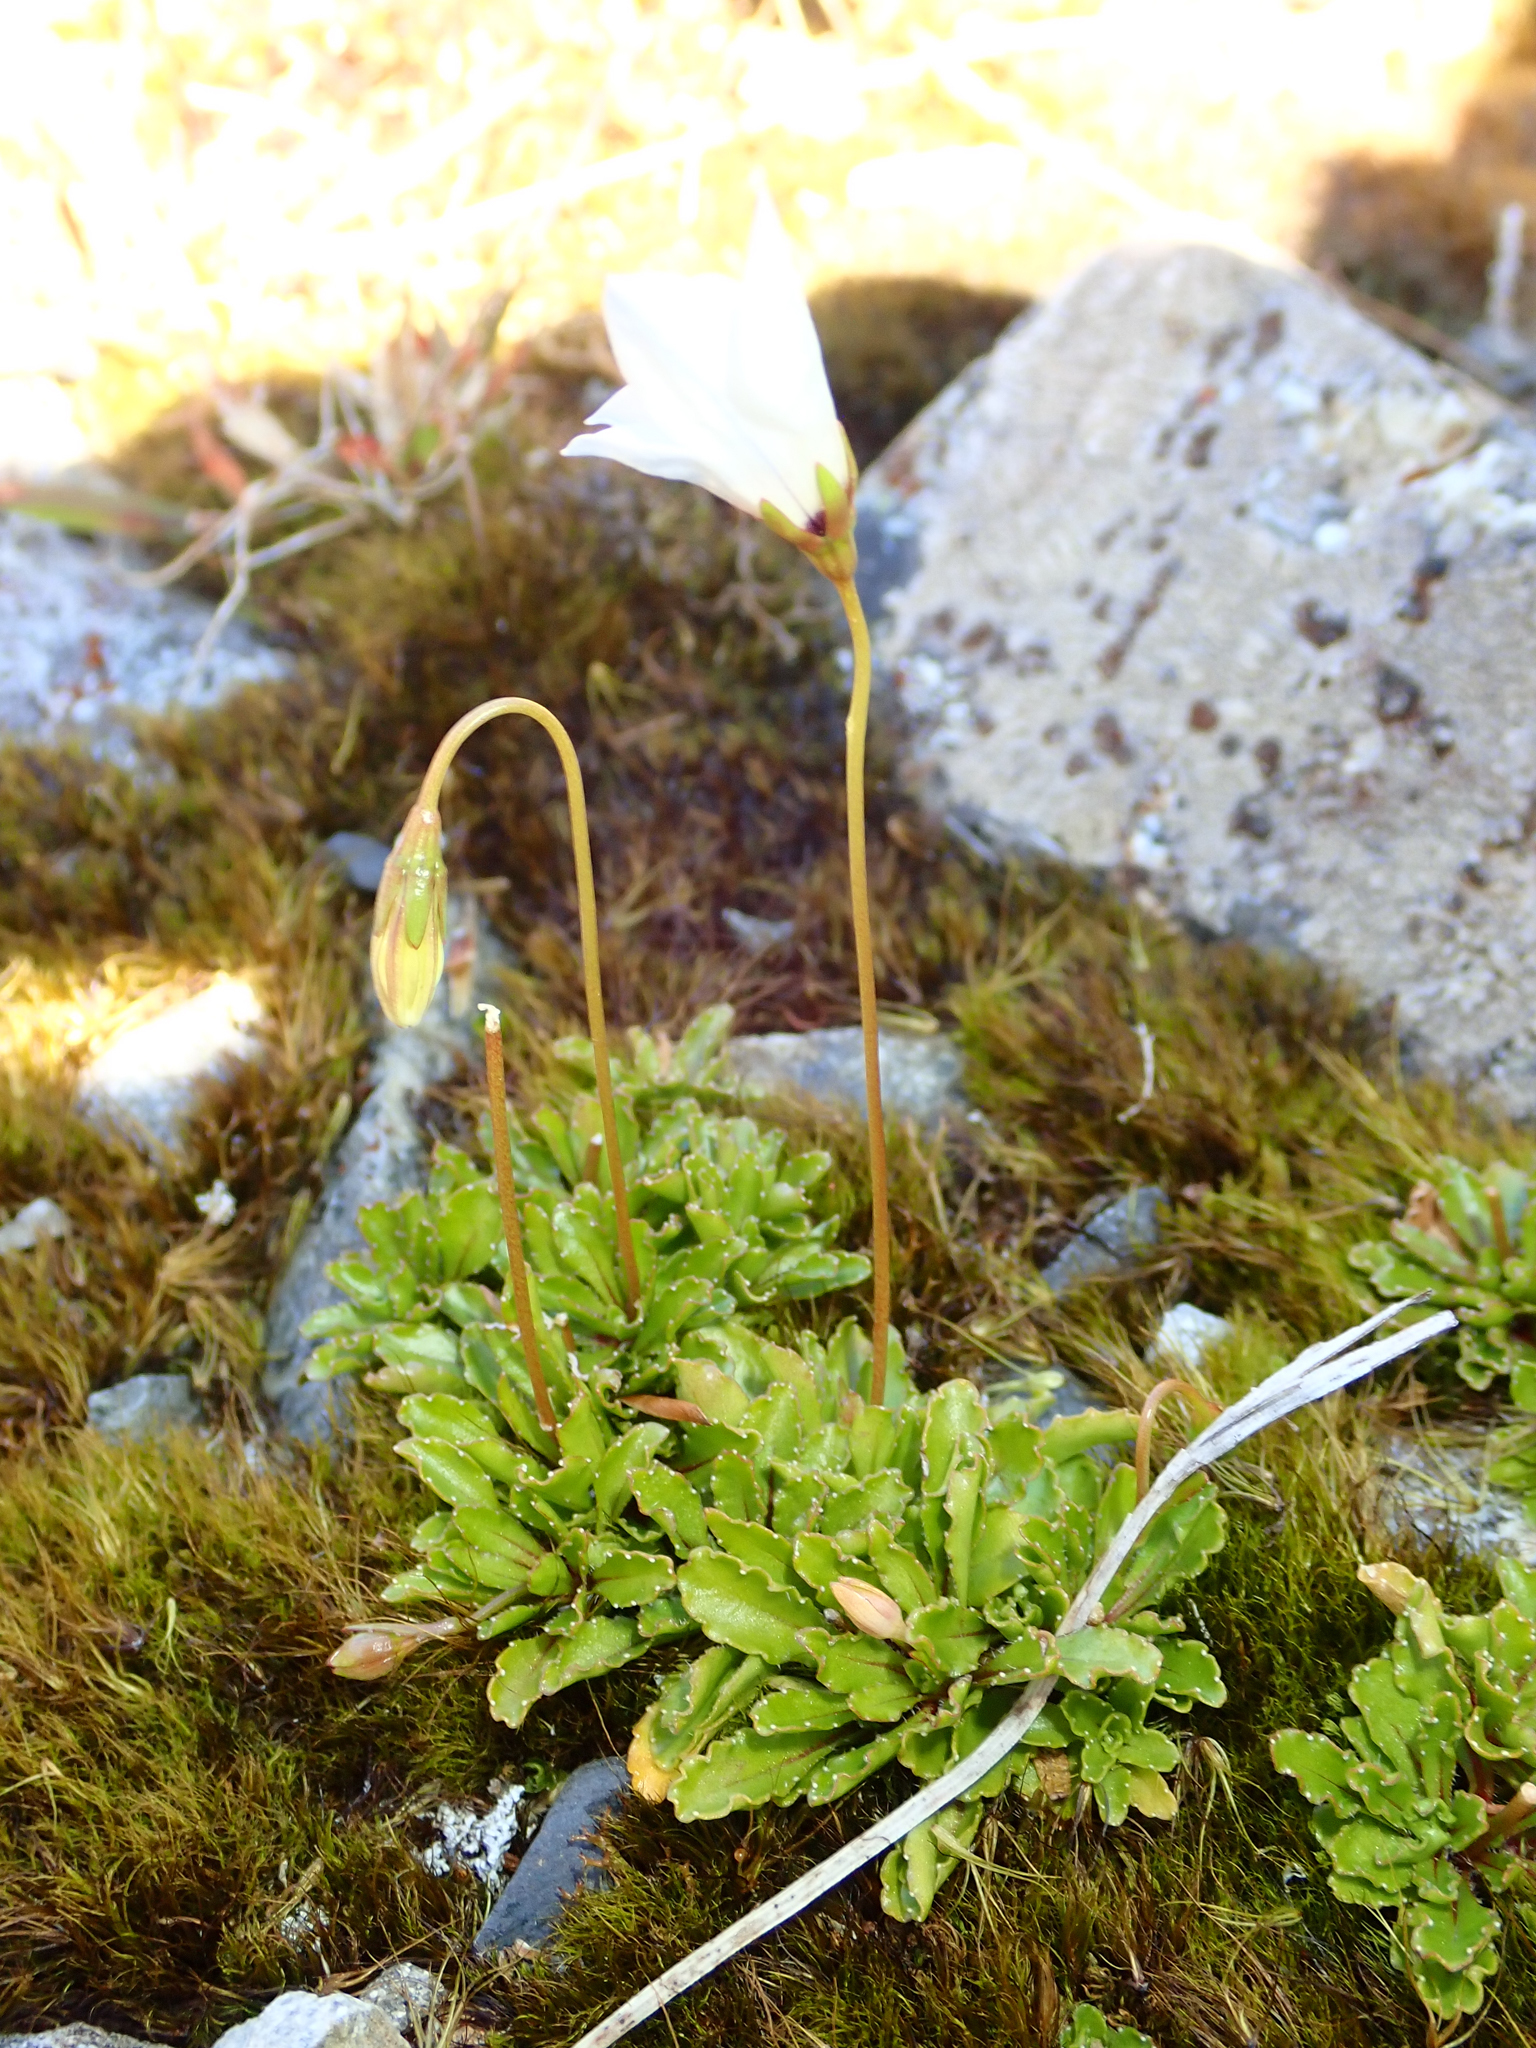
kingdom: Plantae
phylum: Tracheophyta
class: Magnoliopsida
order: Asterales
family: Campanulaceae
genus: Wahlenbergia
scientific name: Wahlenbergia albomarginata
